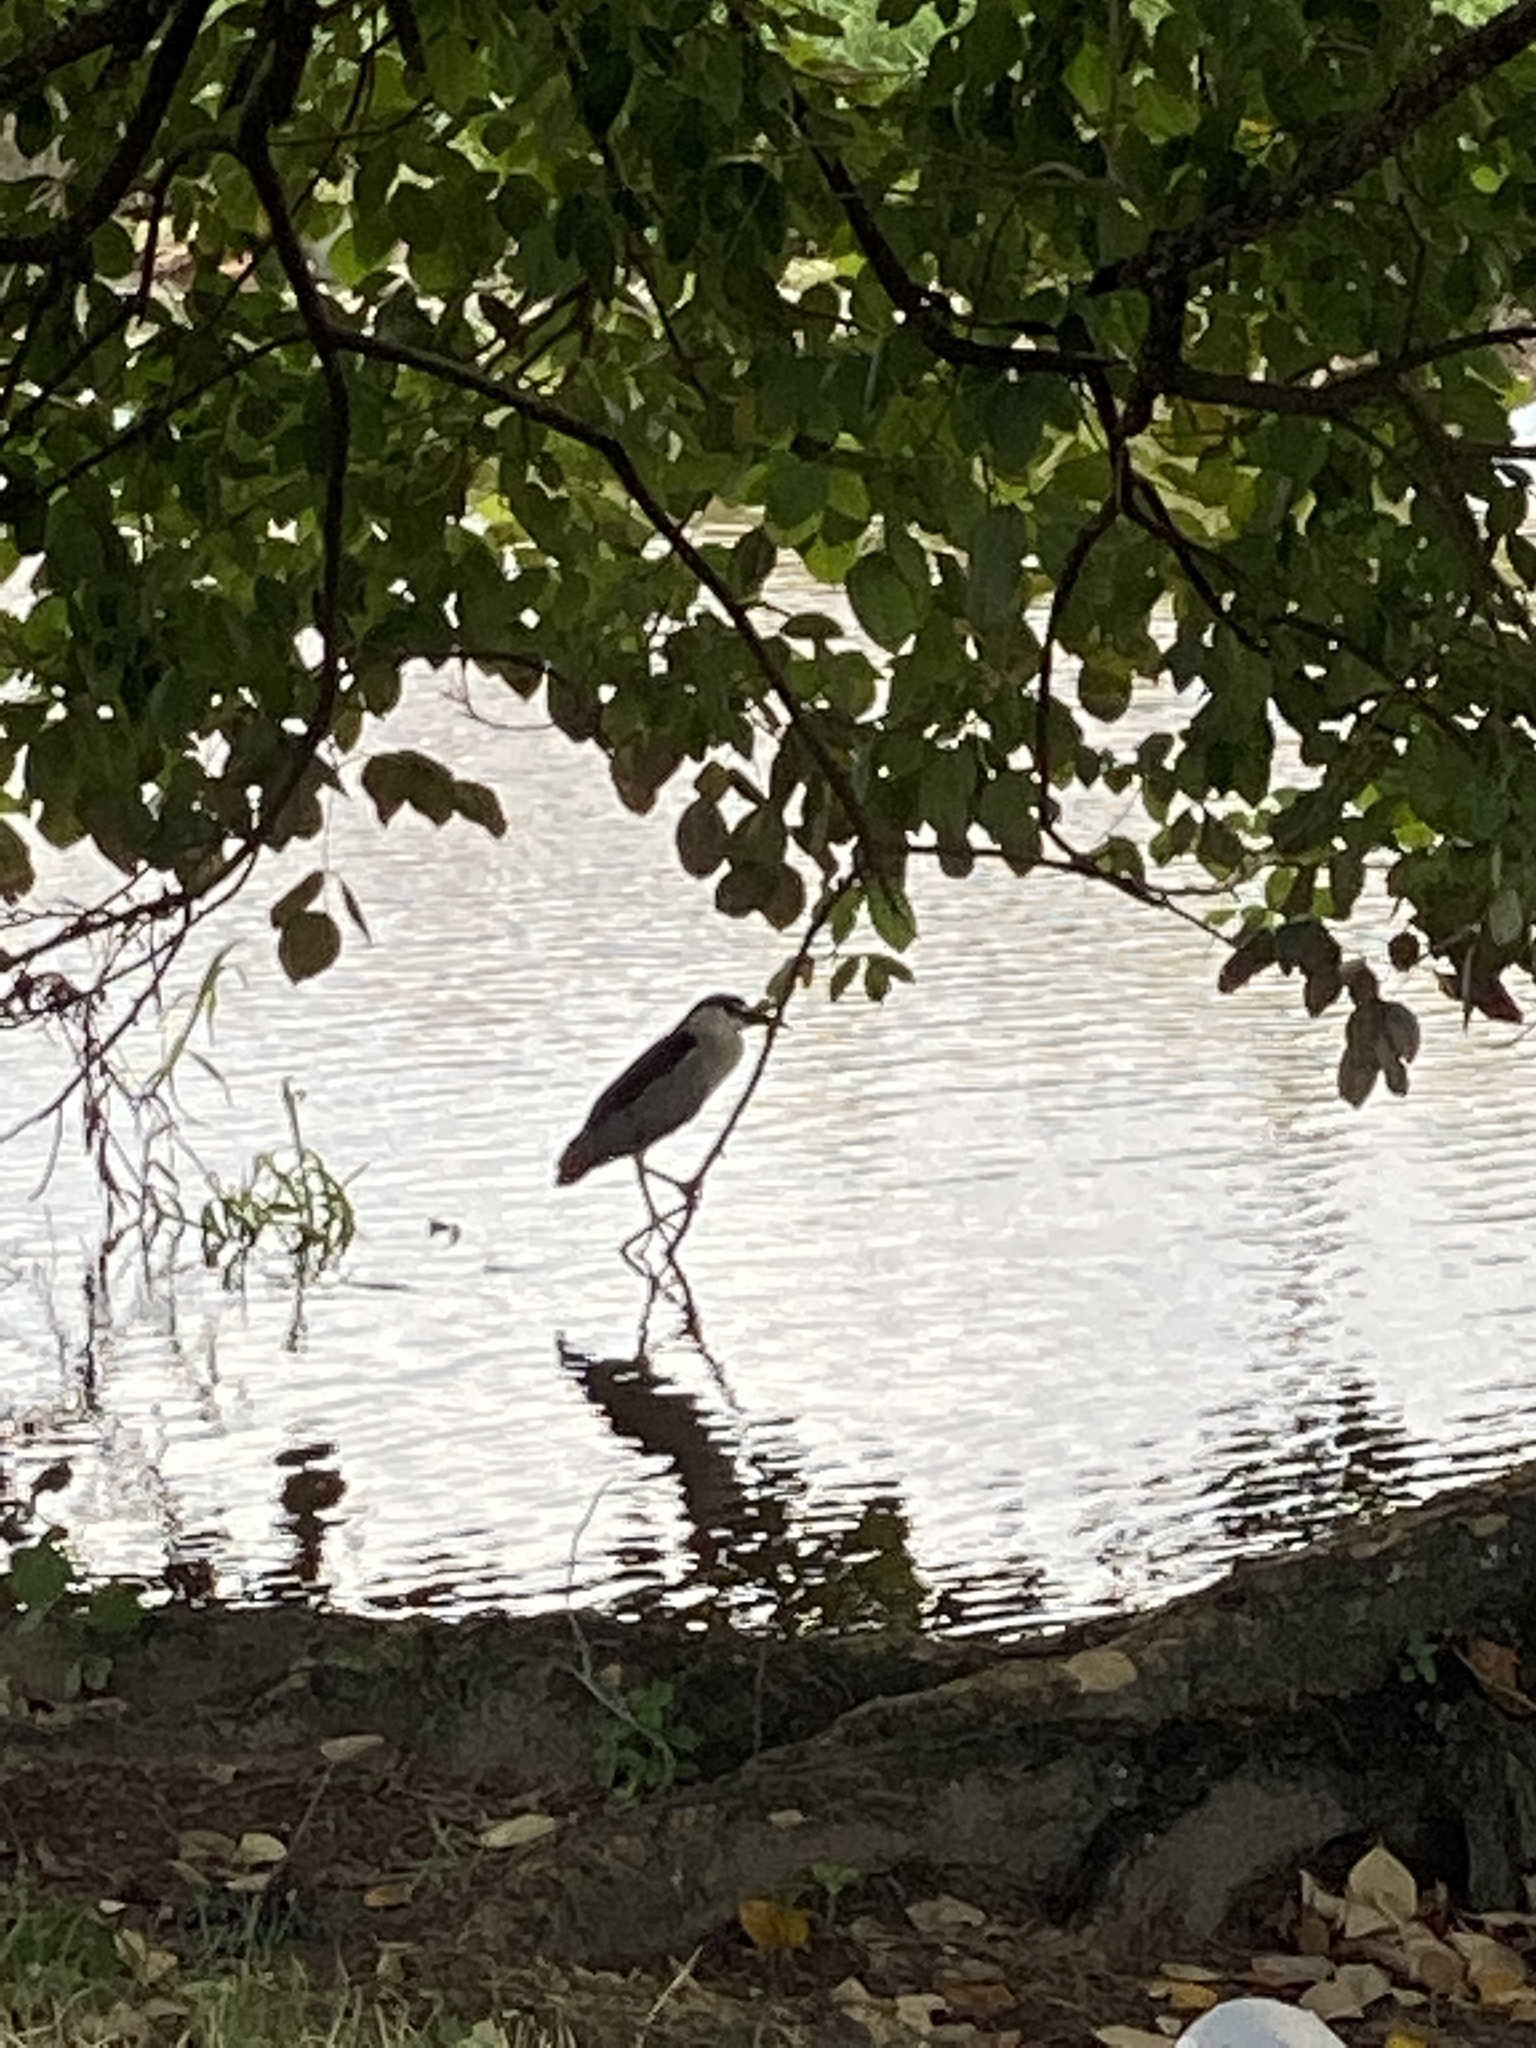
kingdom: Animalia
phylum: Chordata
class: Aves
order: Pelecaniformes
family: Ardeidae
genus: Nycticorax
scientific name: Nycticorax nycticorax
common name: Black-crowned night heron
